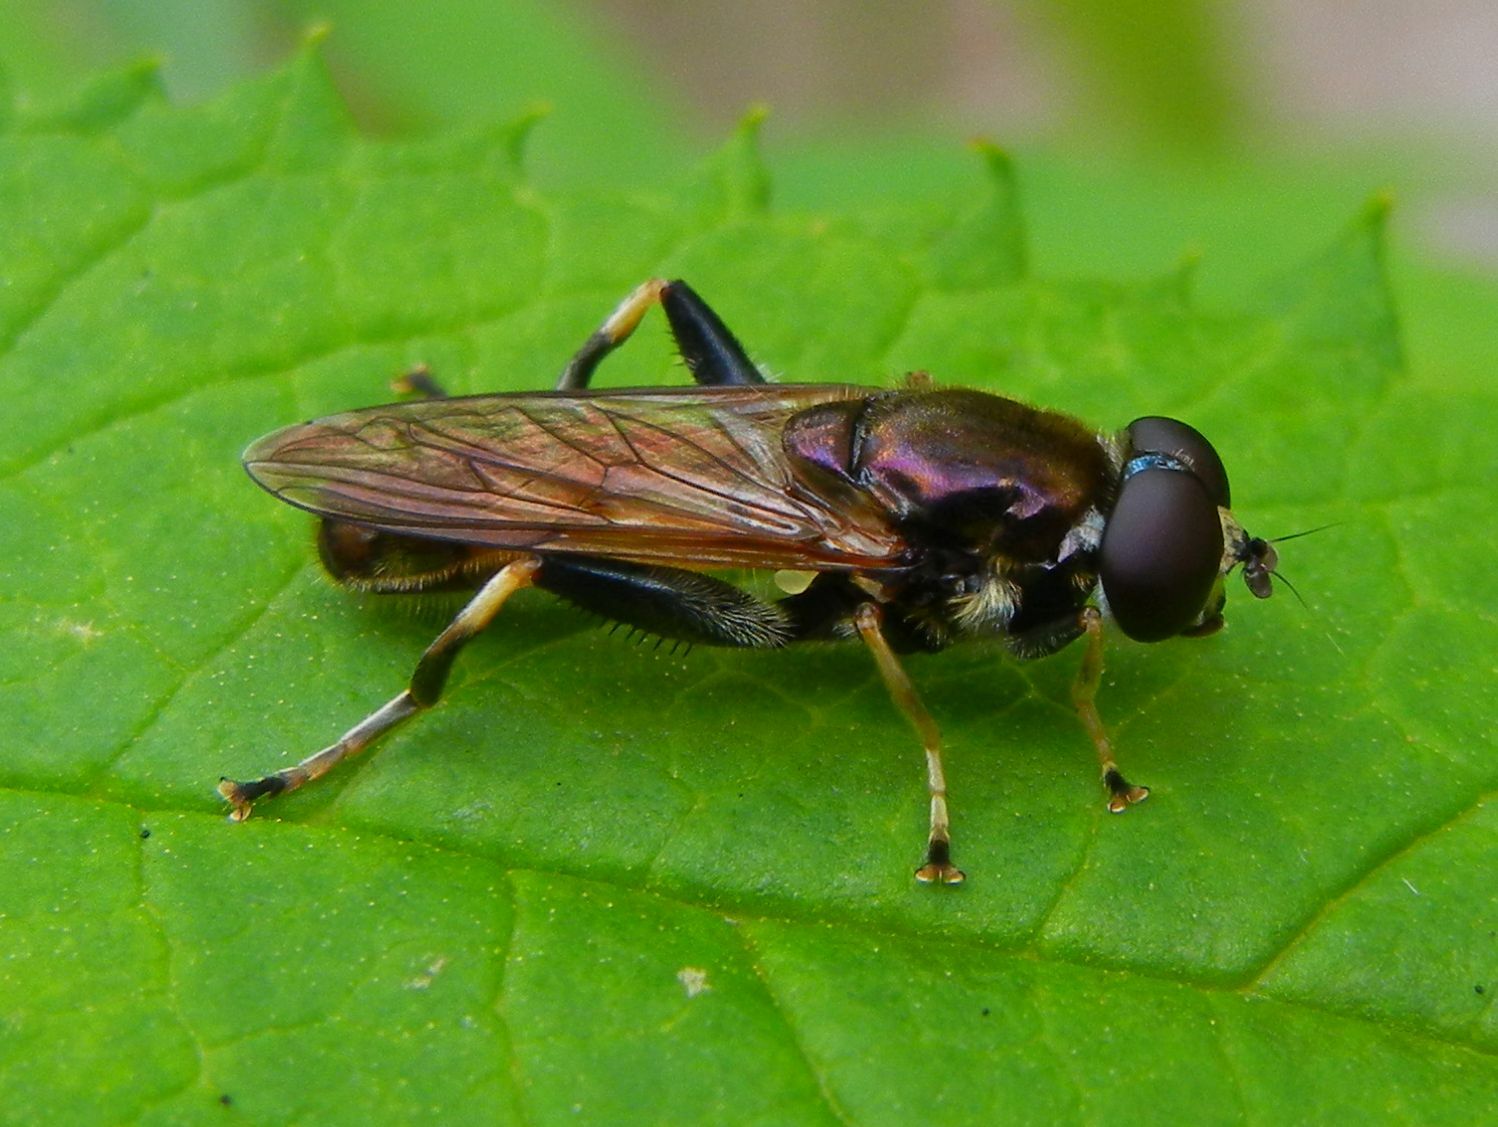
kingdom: Animalia
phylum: Arthropoda
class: Insecta
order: Diptera
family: Syrphidae
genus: Xylota
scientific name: Xylota segnis
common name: Brown-toed forest fly
